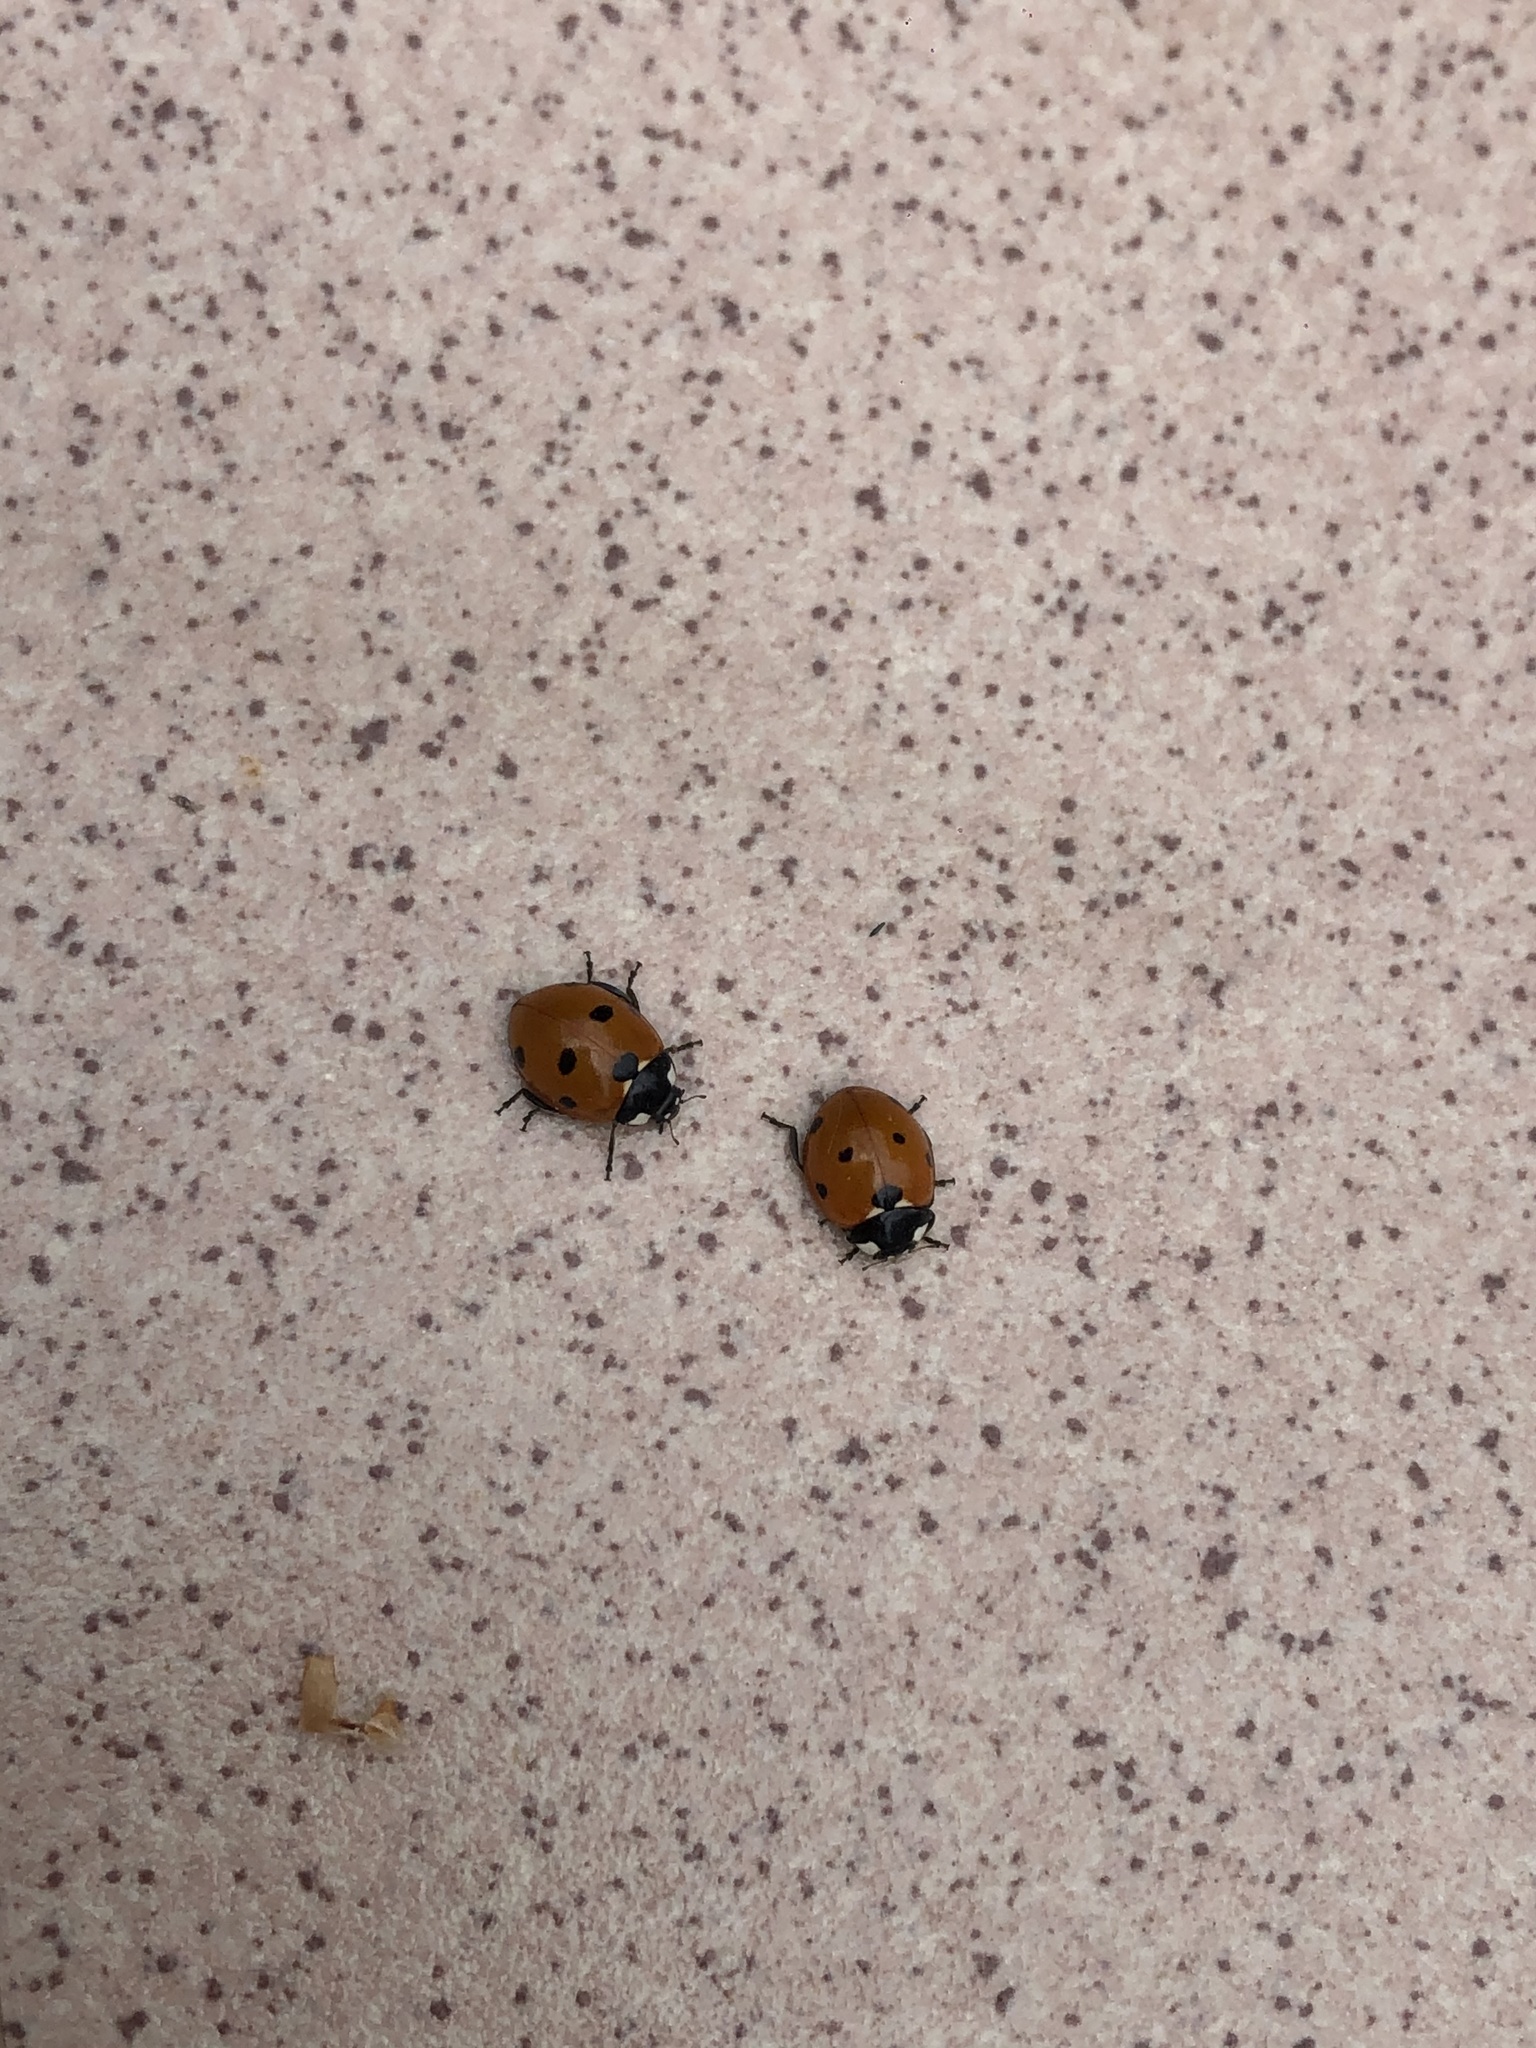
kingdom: Animalia
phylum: Arthropoda
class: Insecta
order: Coleoptera
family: Coccinellidae
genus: Coccinella
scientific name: Coccinella septempunctata
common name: Sevenspotted lady beetle
